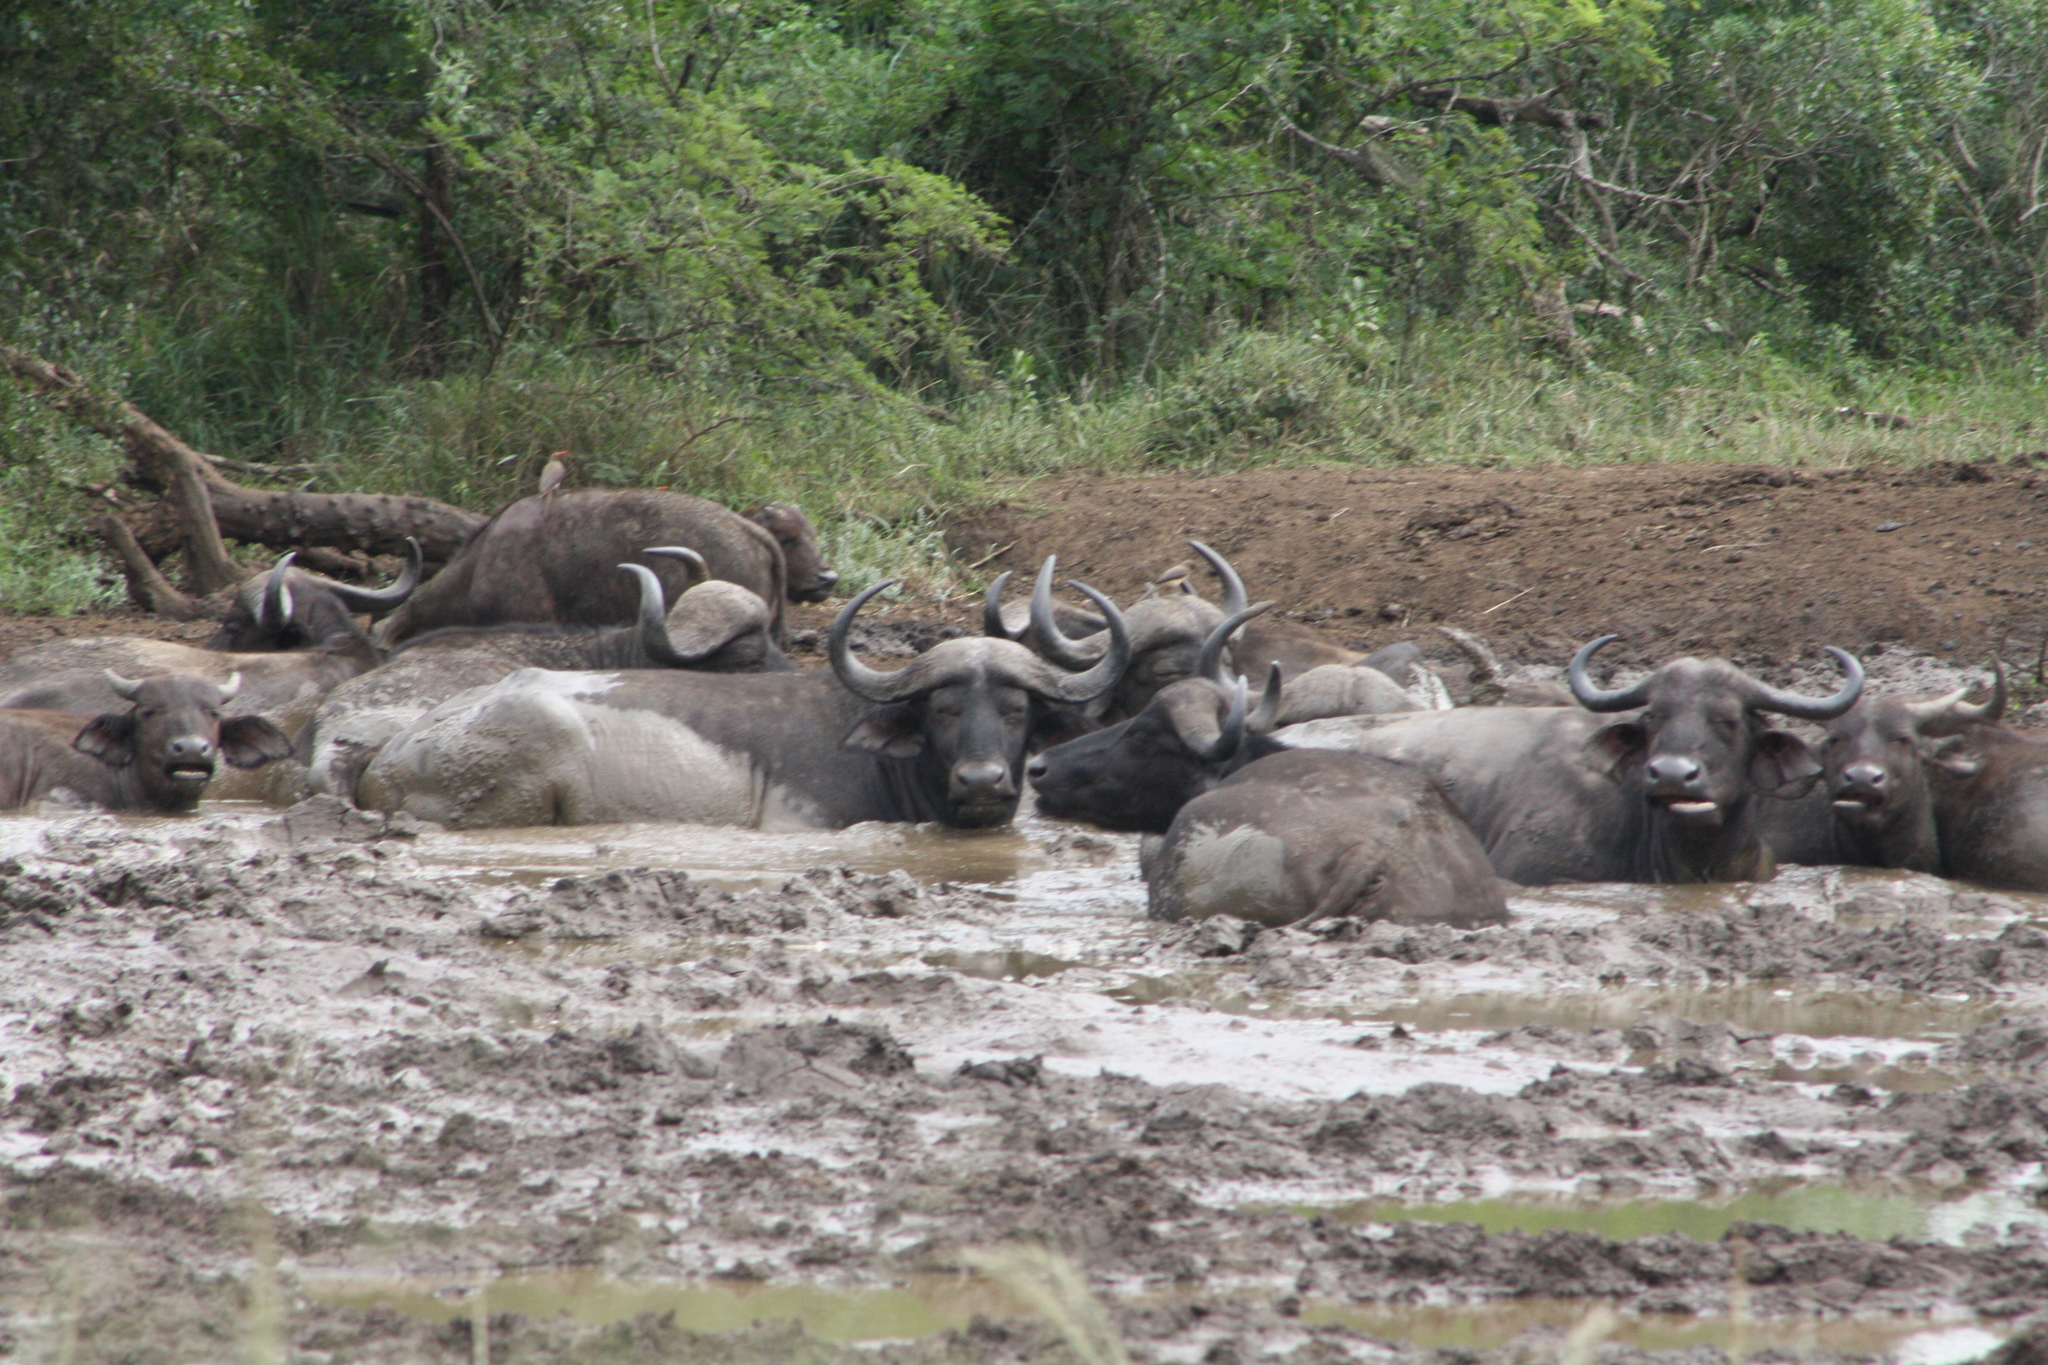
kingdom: Animalia
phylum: Chordata
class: Mammalia
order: Artiodactyla
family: Bovidae
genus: Syncerus
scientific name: Syncerus caffer
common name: African buffalo
